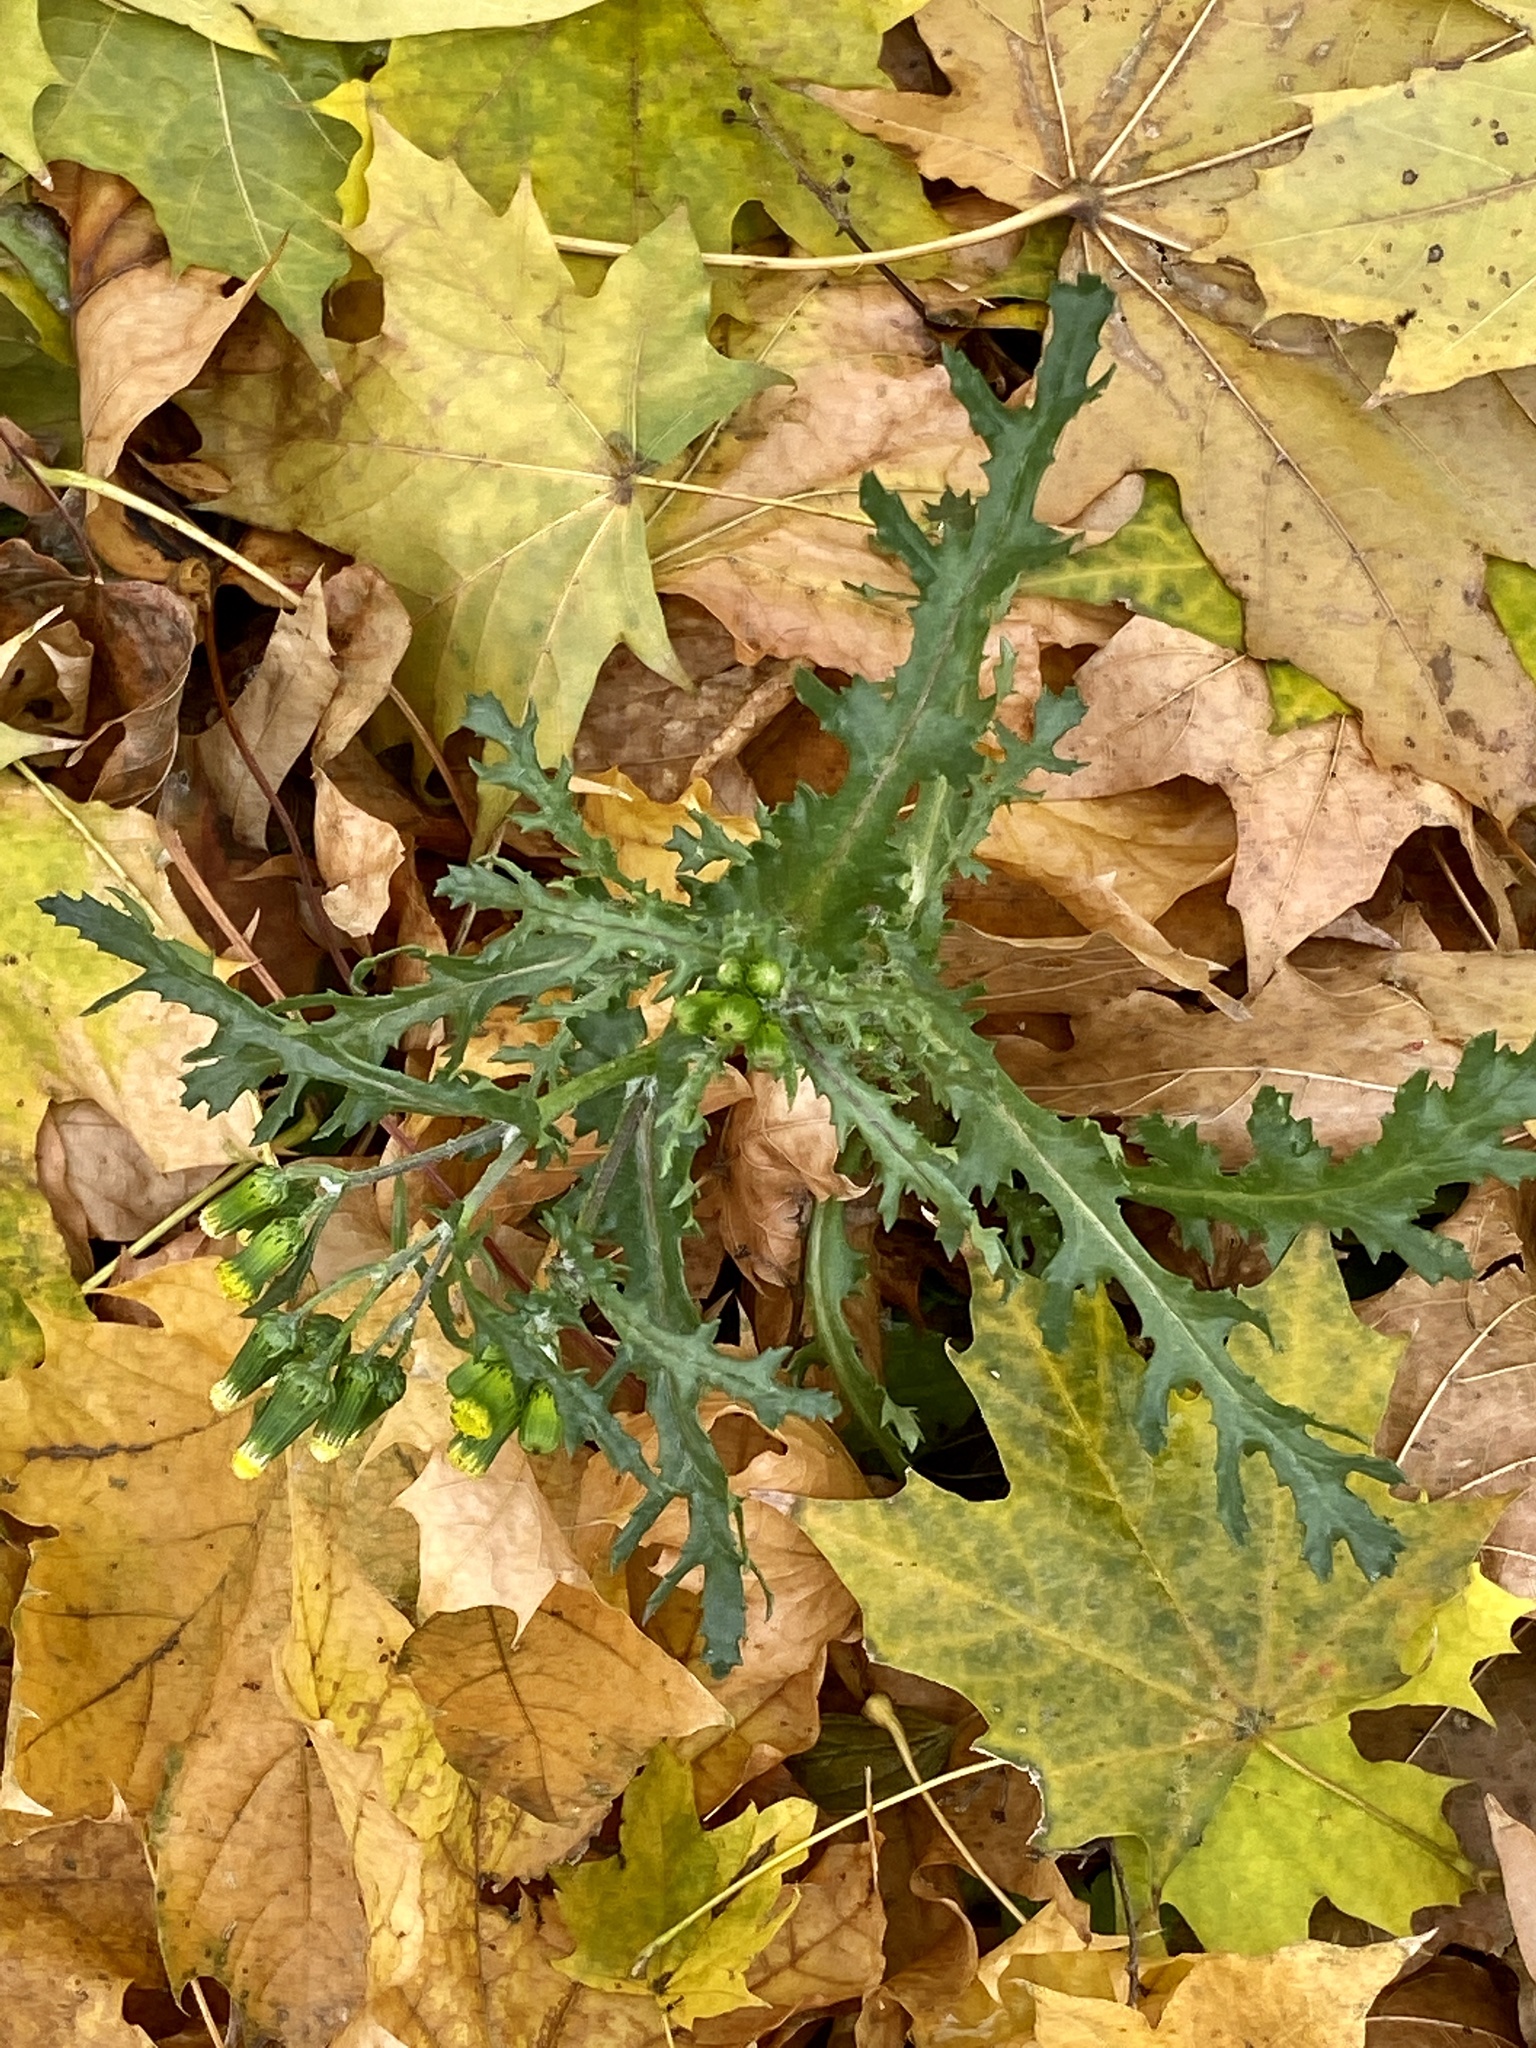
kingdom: Plantae
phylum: Tracheophyta
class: Magnoliopsida
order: Asterales
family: Asteraceae
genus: Senecio
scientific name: Senecio vulgaris
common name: Old-man-in-the-spring
